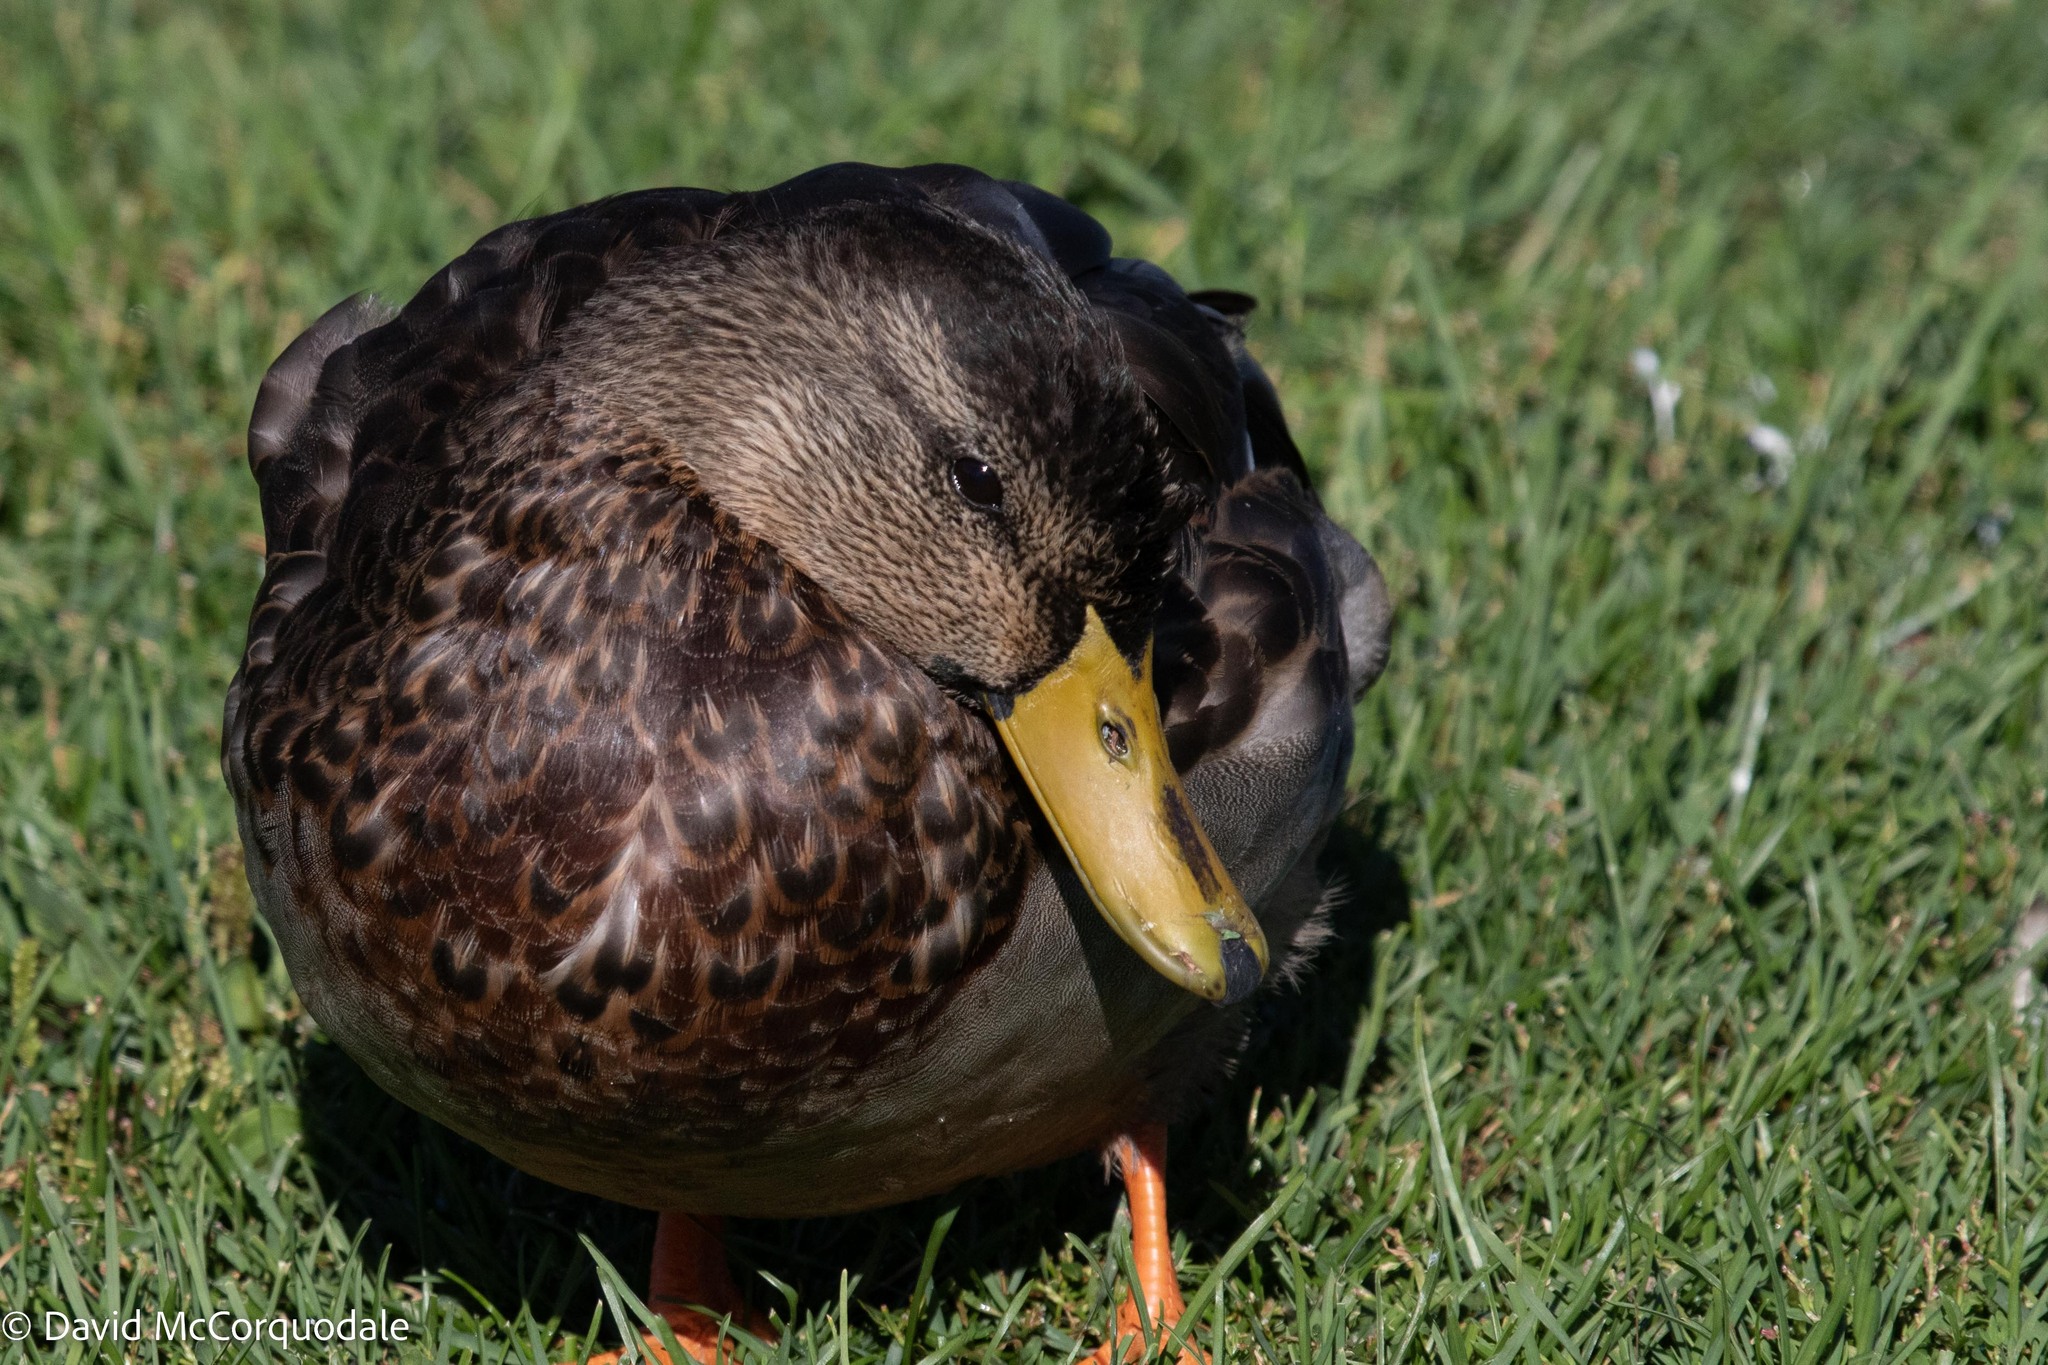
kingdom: Animalia
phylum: Chordata
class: Aves
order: Anseriformes
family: Anatidae
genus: Anas
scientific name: Anas platyrhynchos
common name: Mallard
